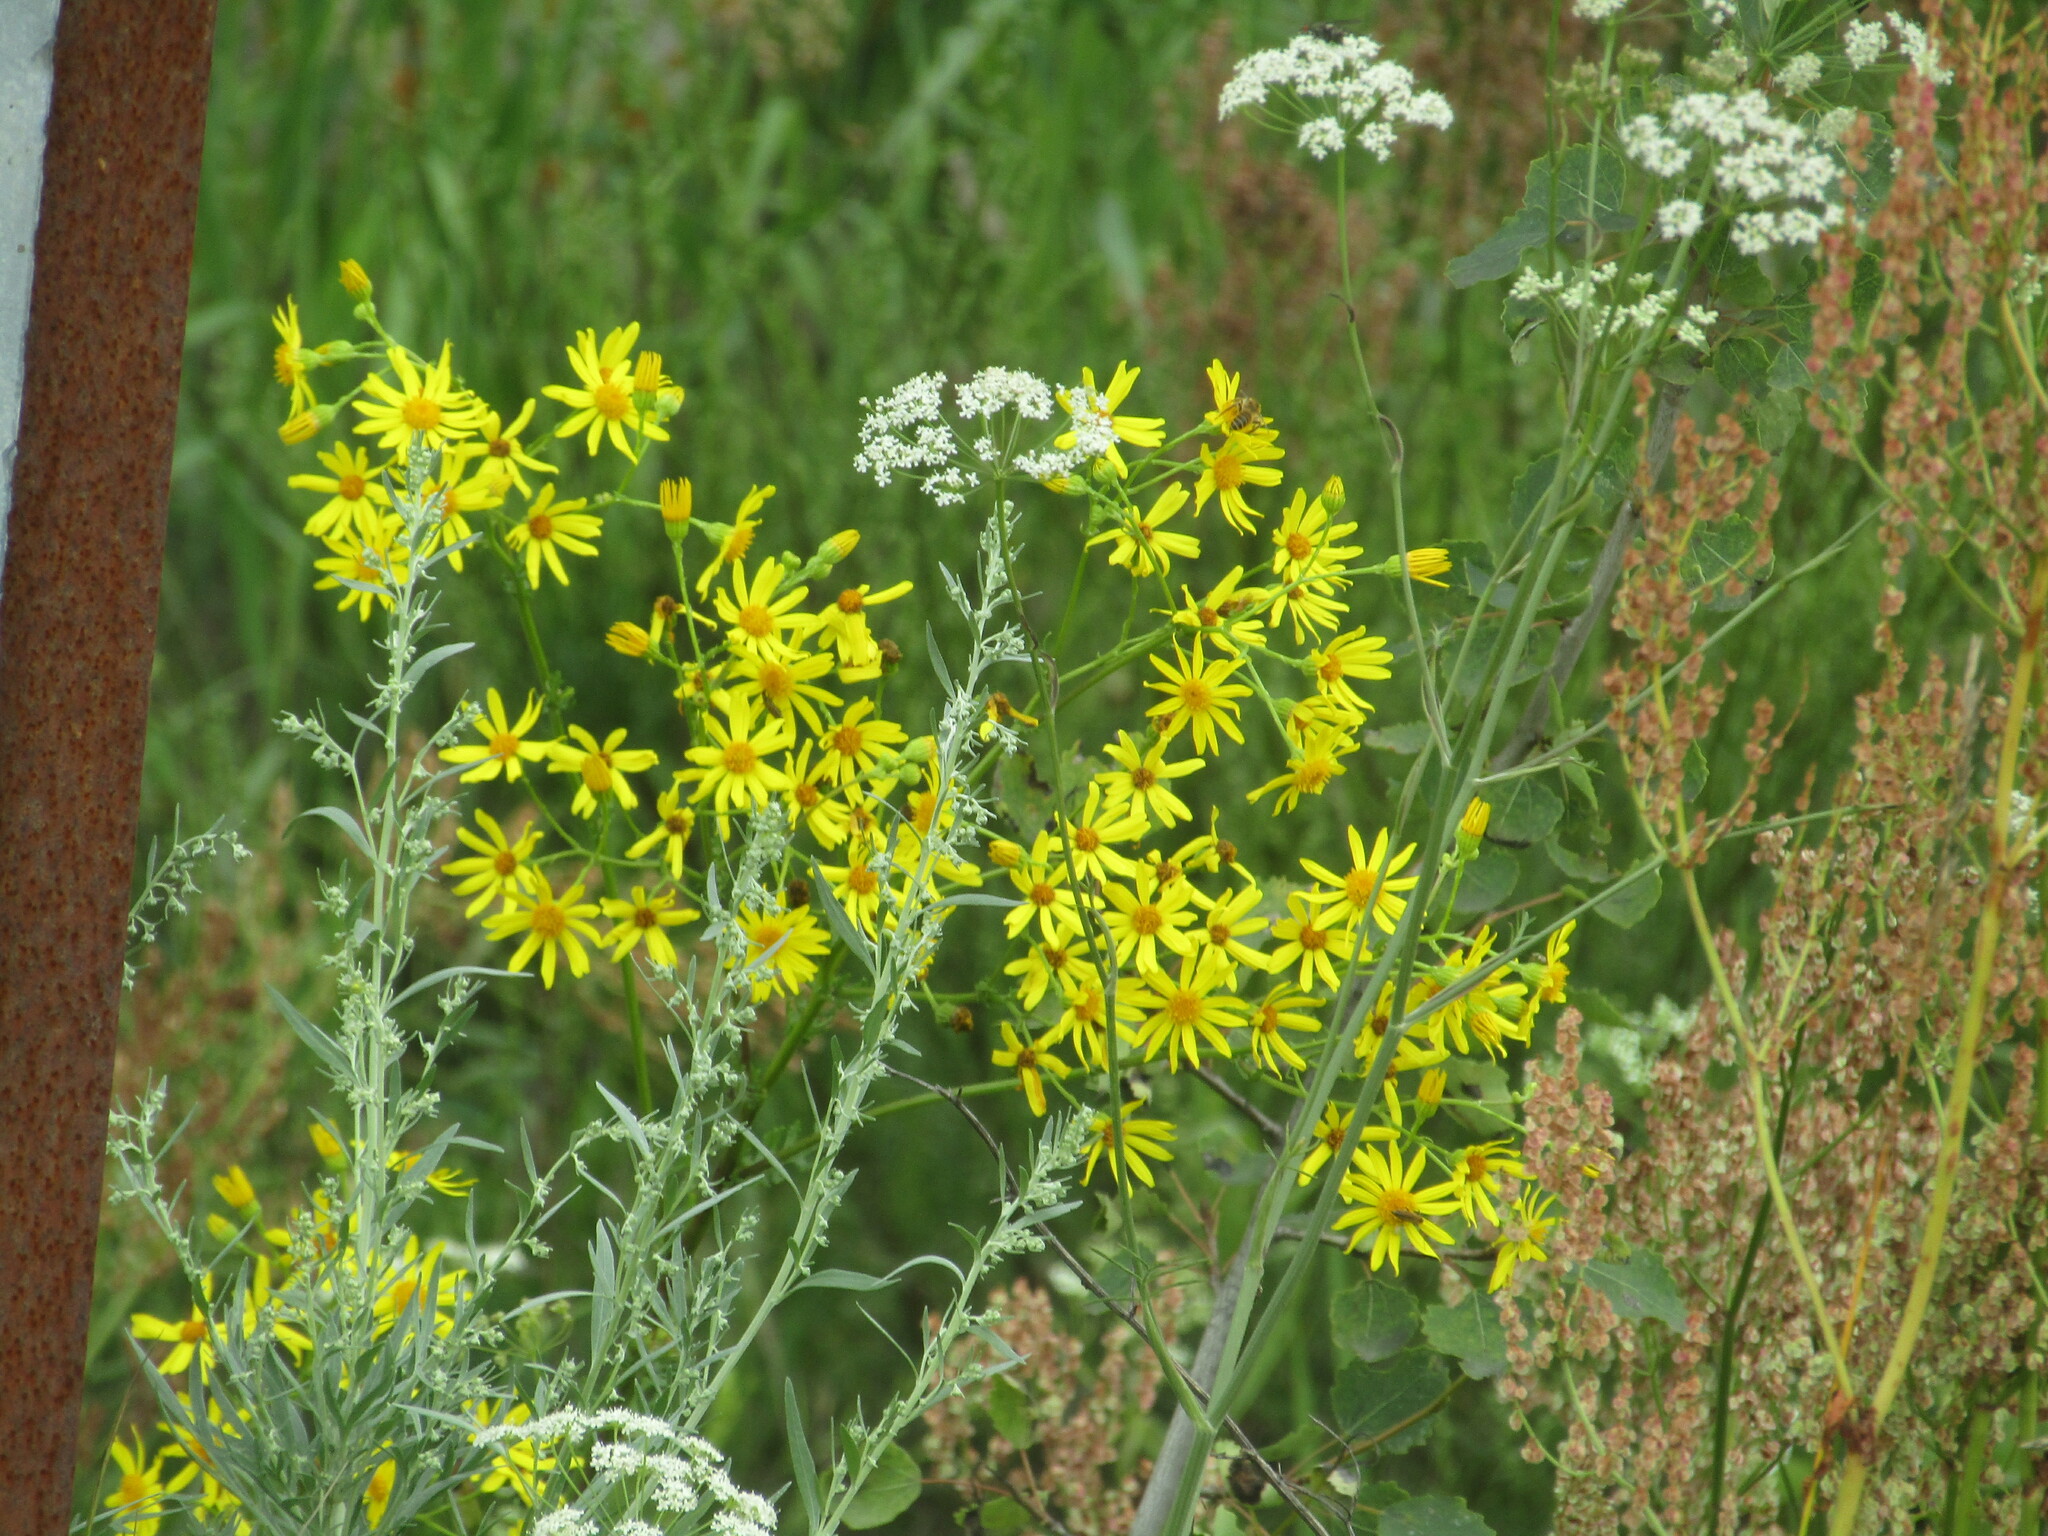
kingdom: Plantae
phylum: Tracheophyta
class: Magnoliopsida
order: Asterales
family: Asteraceae
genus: Jacobaea
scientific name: Jacobaea vulgaris
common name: Stinking willie
